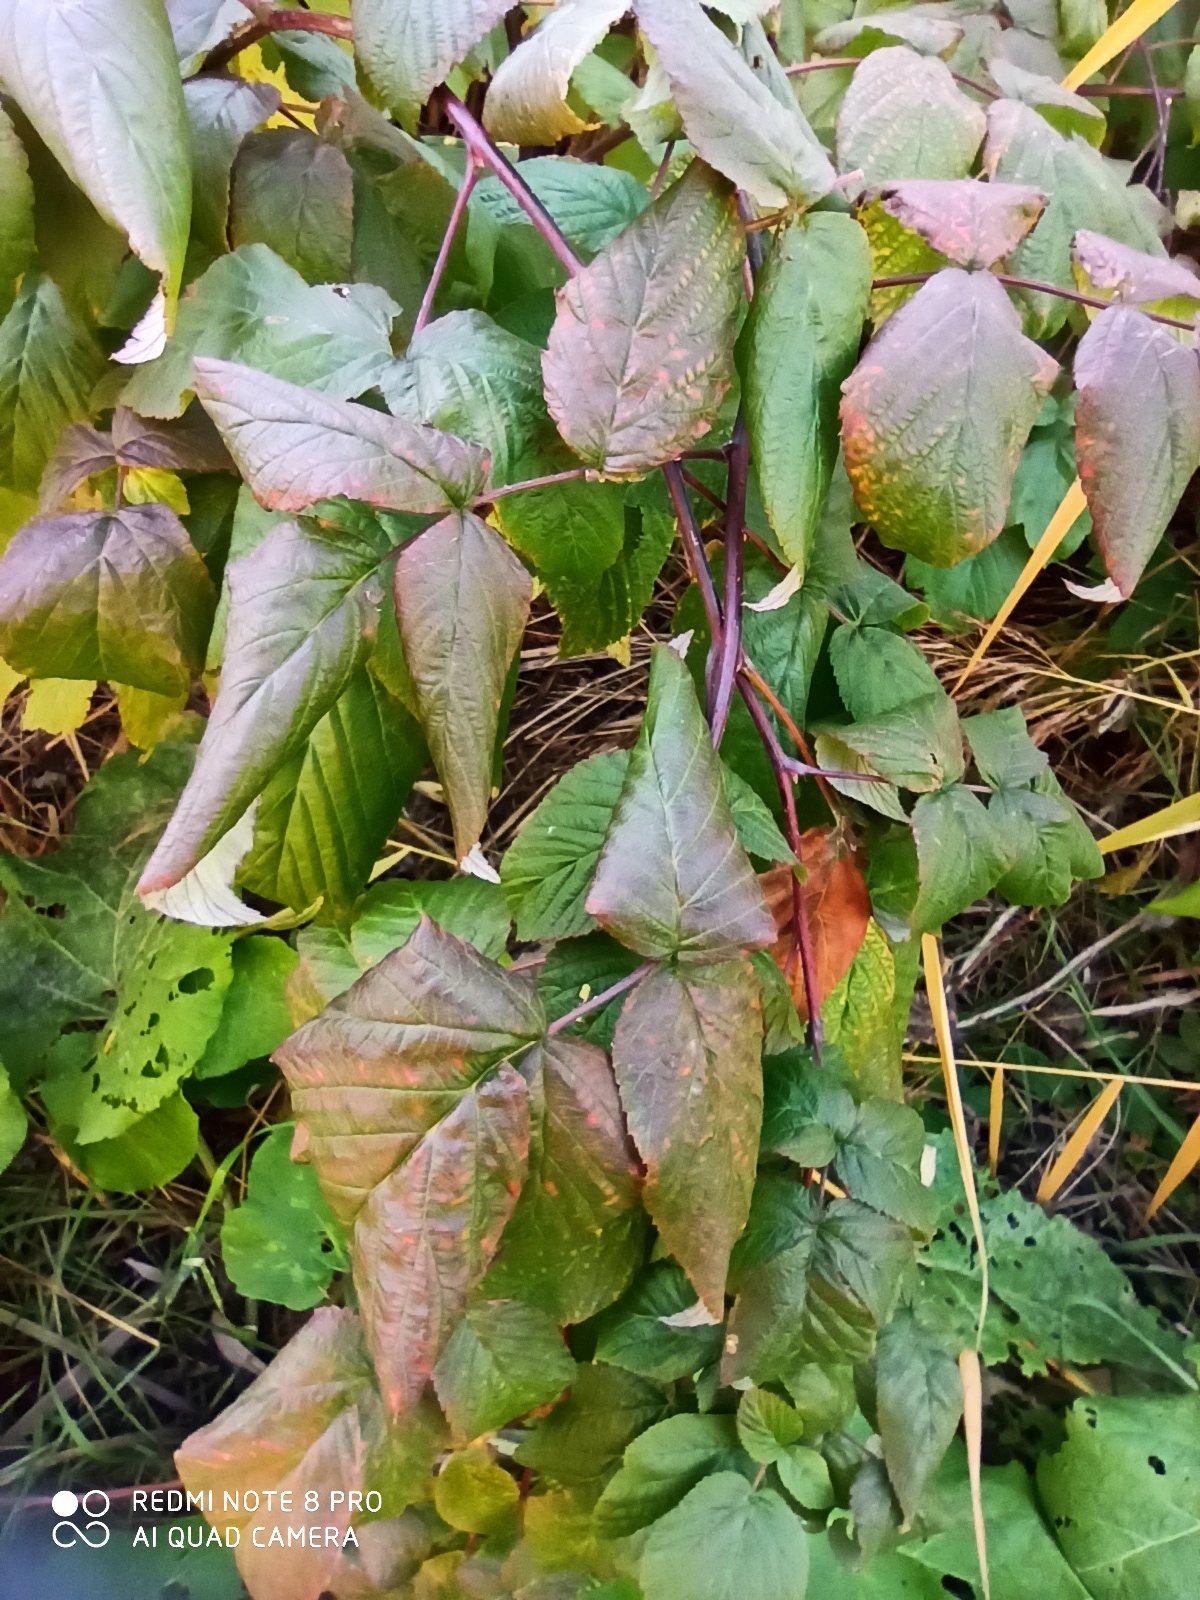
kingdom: Plantae
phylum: Tracheophyta
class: Magnoliopsida
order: Rosales
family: Rosaceae
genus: Rubus
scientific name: Rubus caesius
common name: Dewberry
